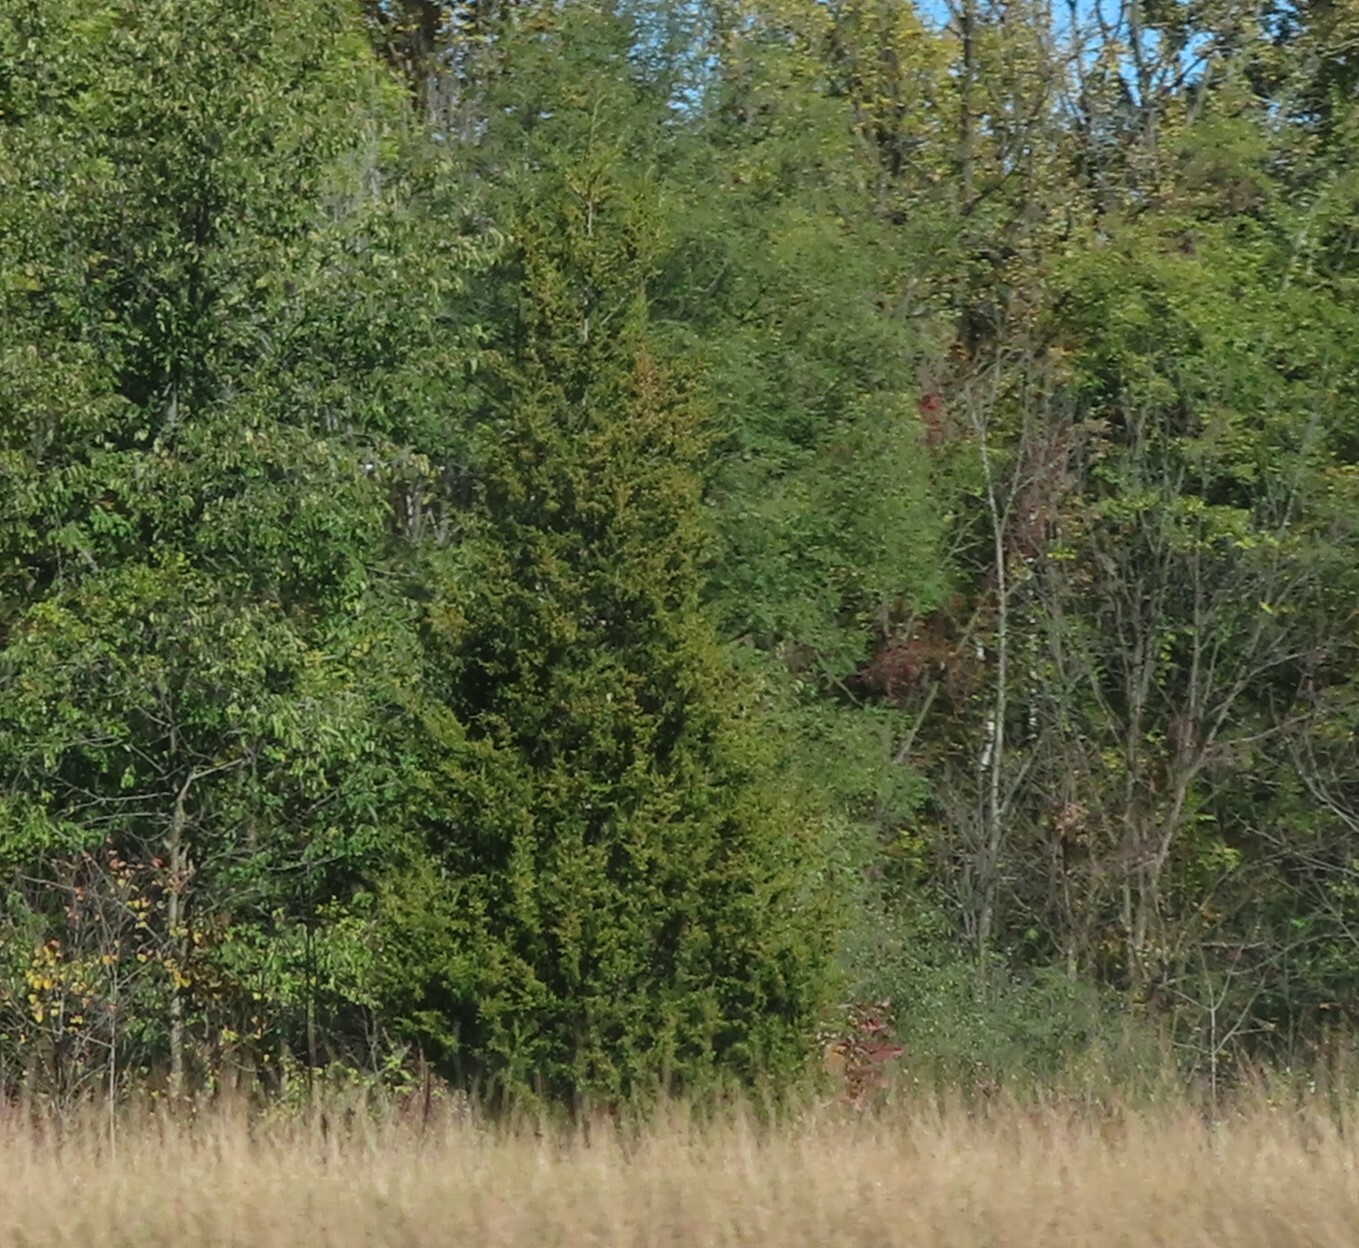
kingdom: Plantae
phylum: Tracheophyta
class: Pinopsida
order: Pinales
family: Cupressaceae
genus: Juniperus
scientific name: Juniperus virginiana
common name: Red juniper
